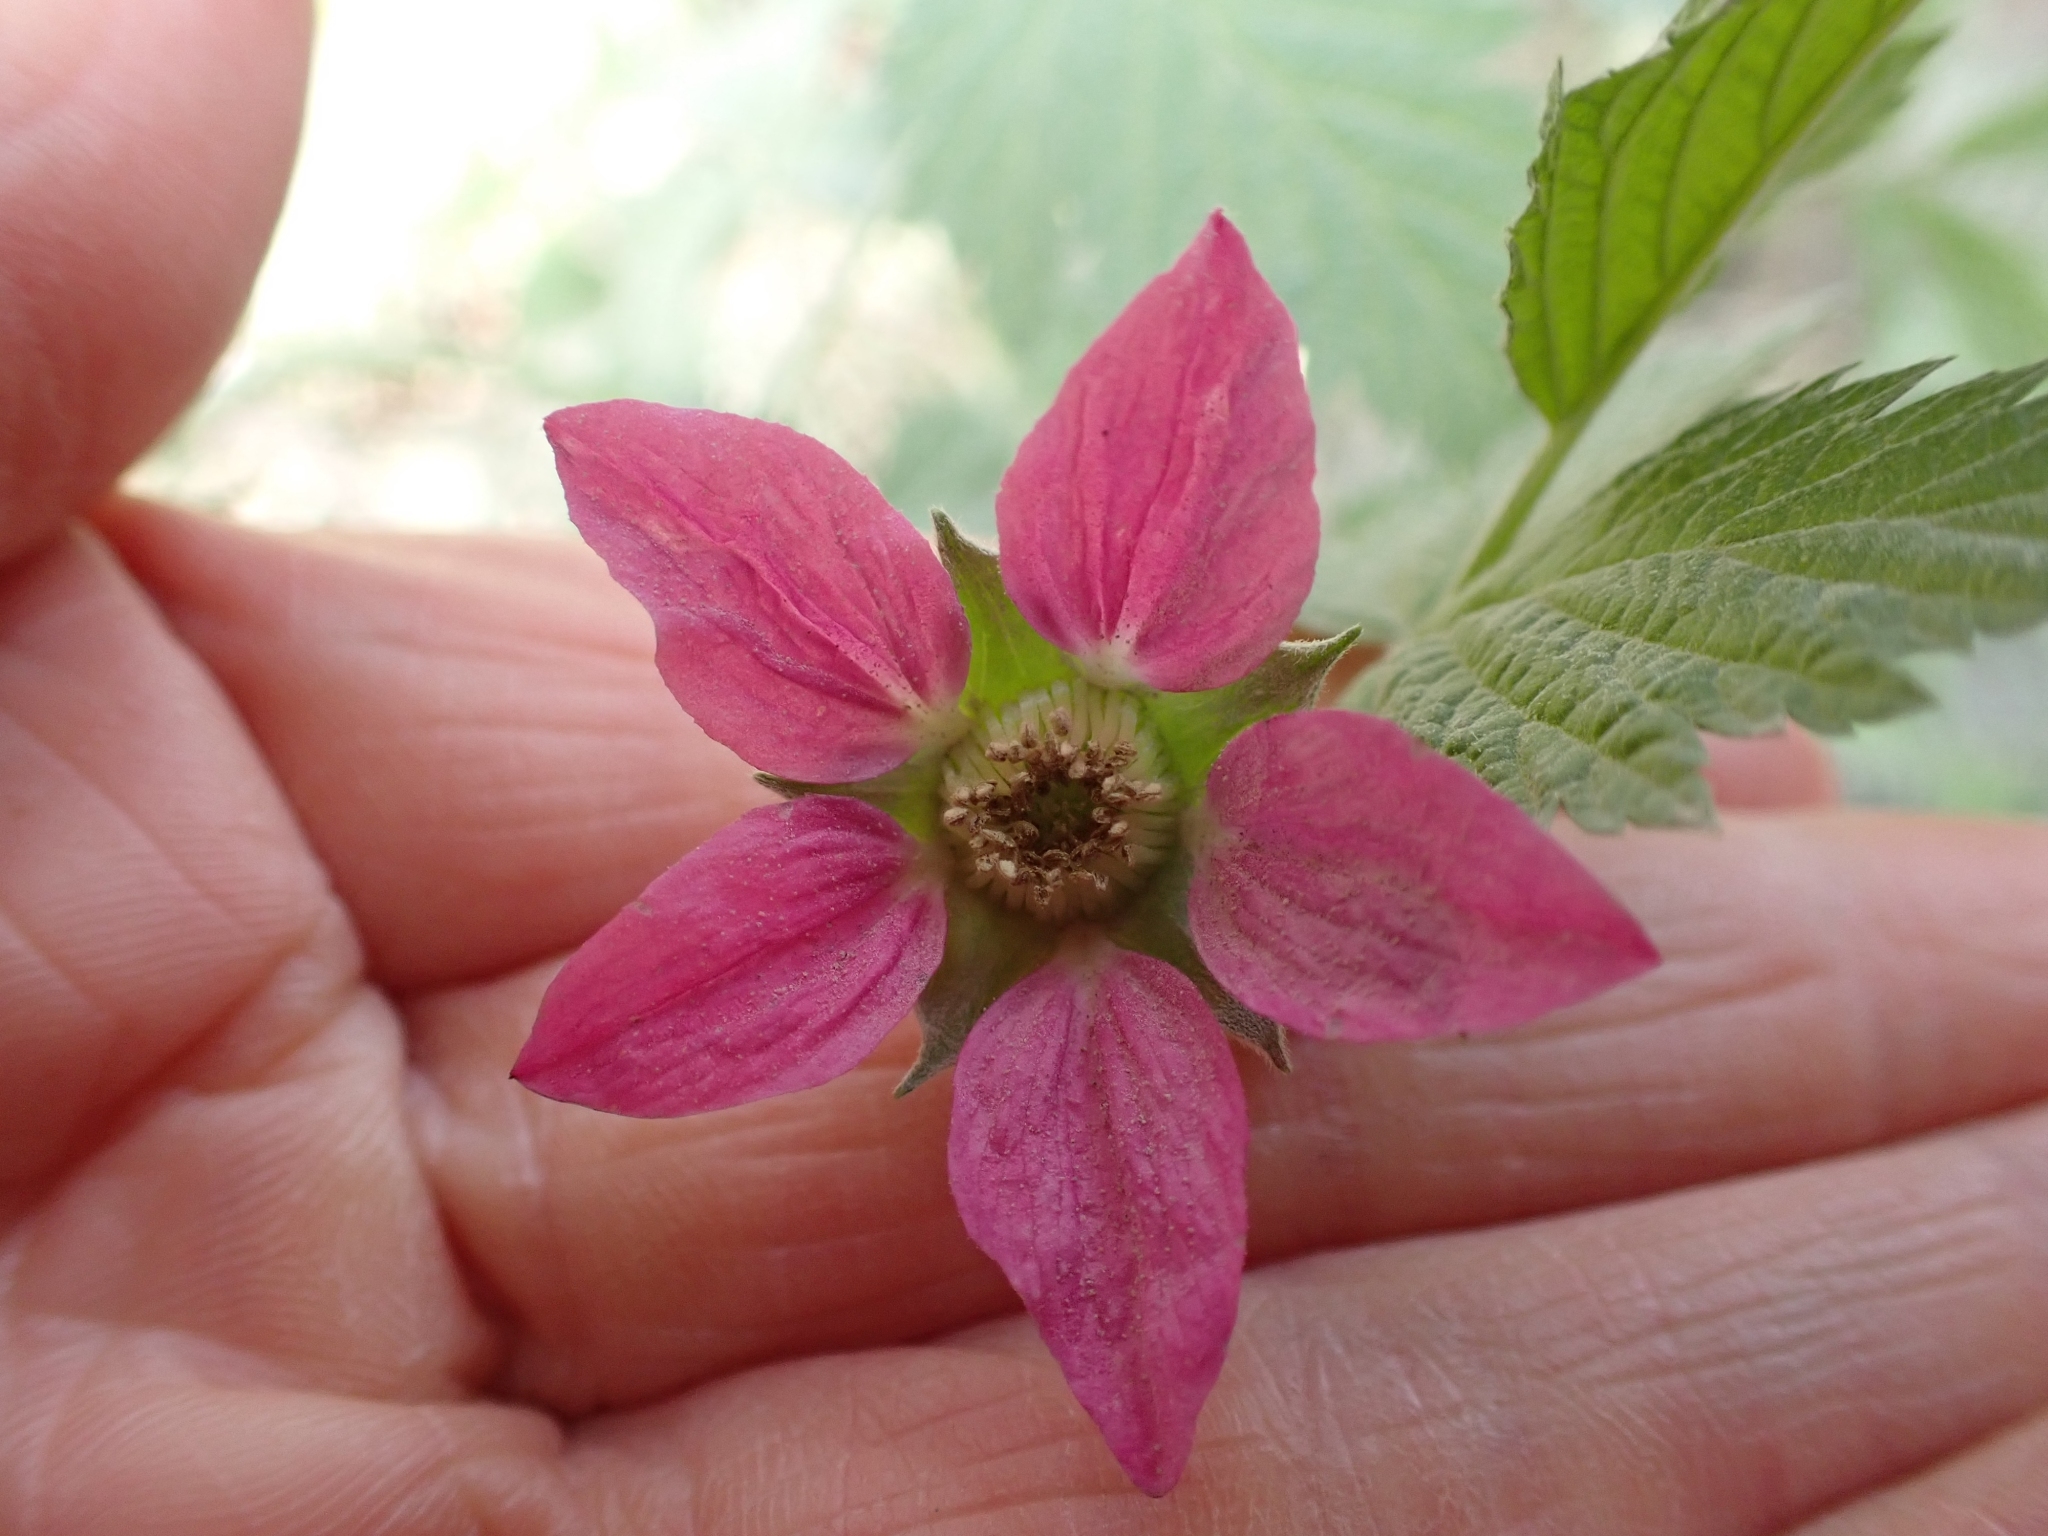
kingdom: Plantae
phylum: Tracheophyta
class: Magnoliopsida
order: Rosales
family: Rosaceae
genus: Rubus
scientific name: Rubus spectabilis
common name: Salmonberry
